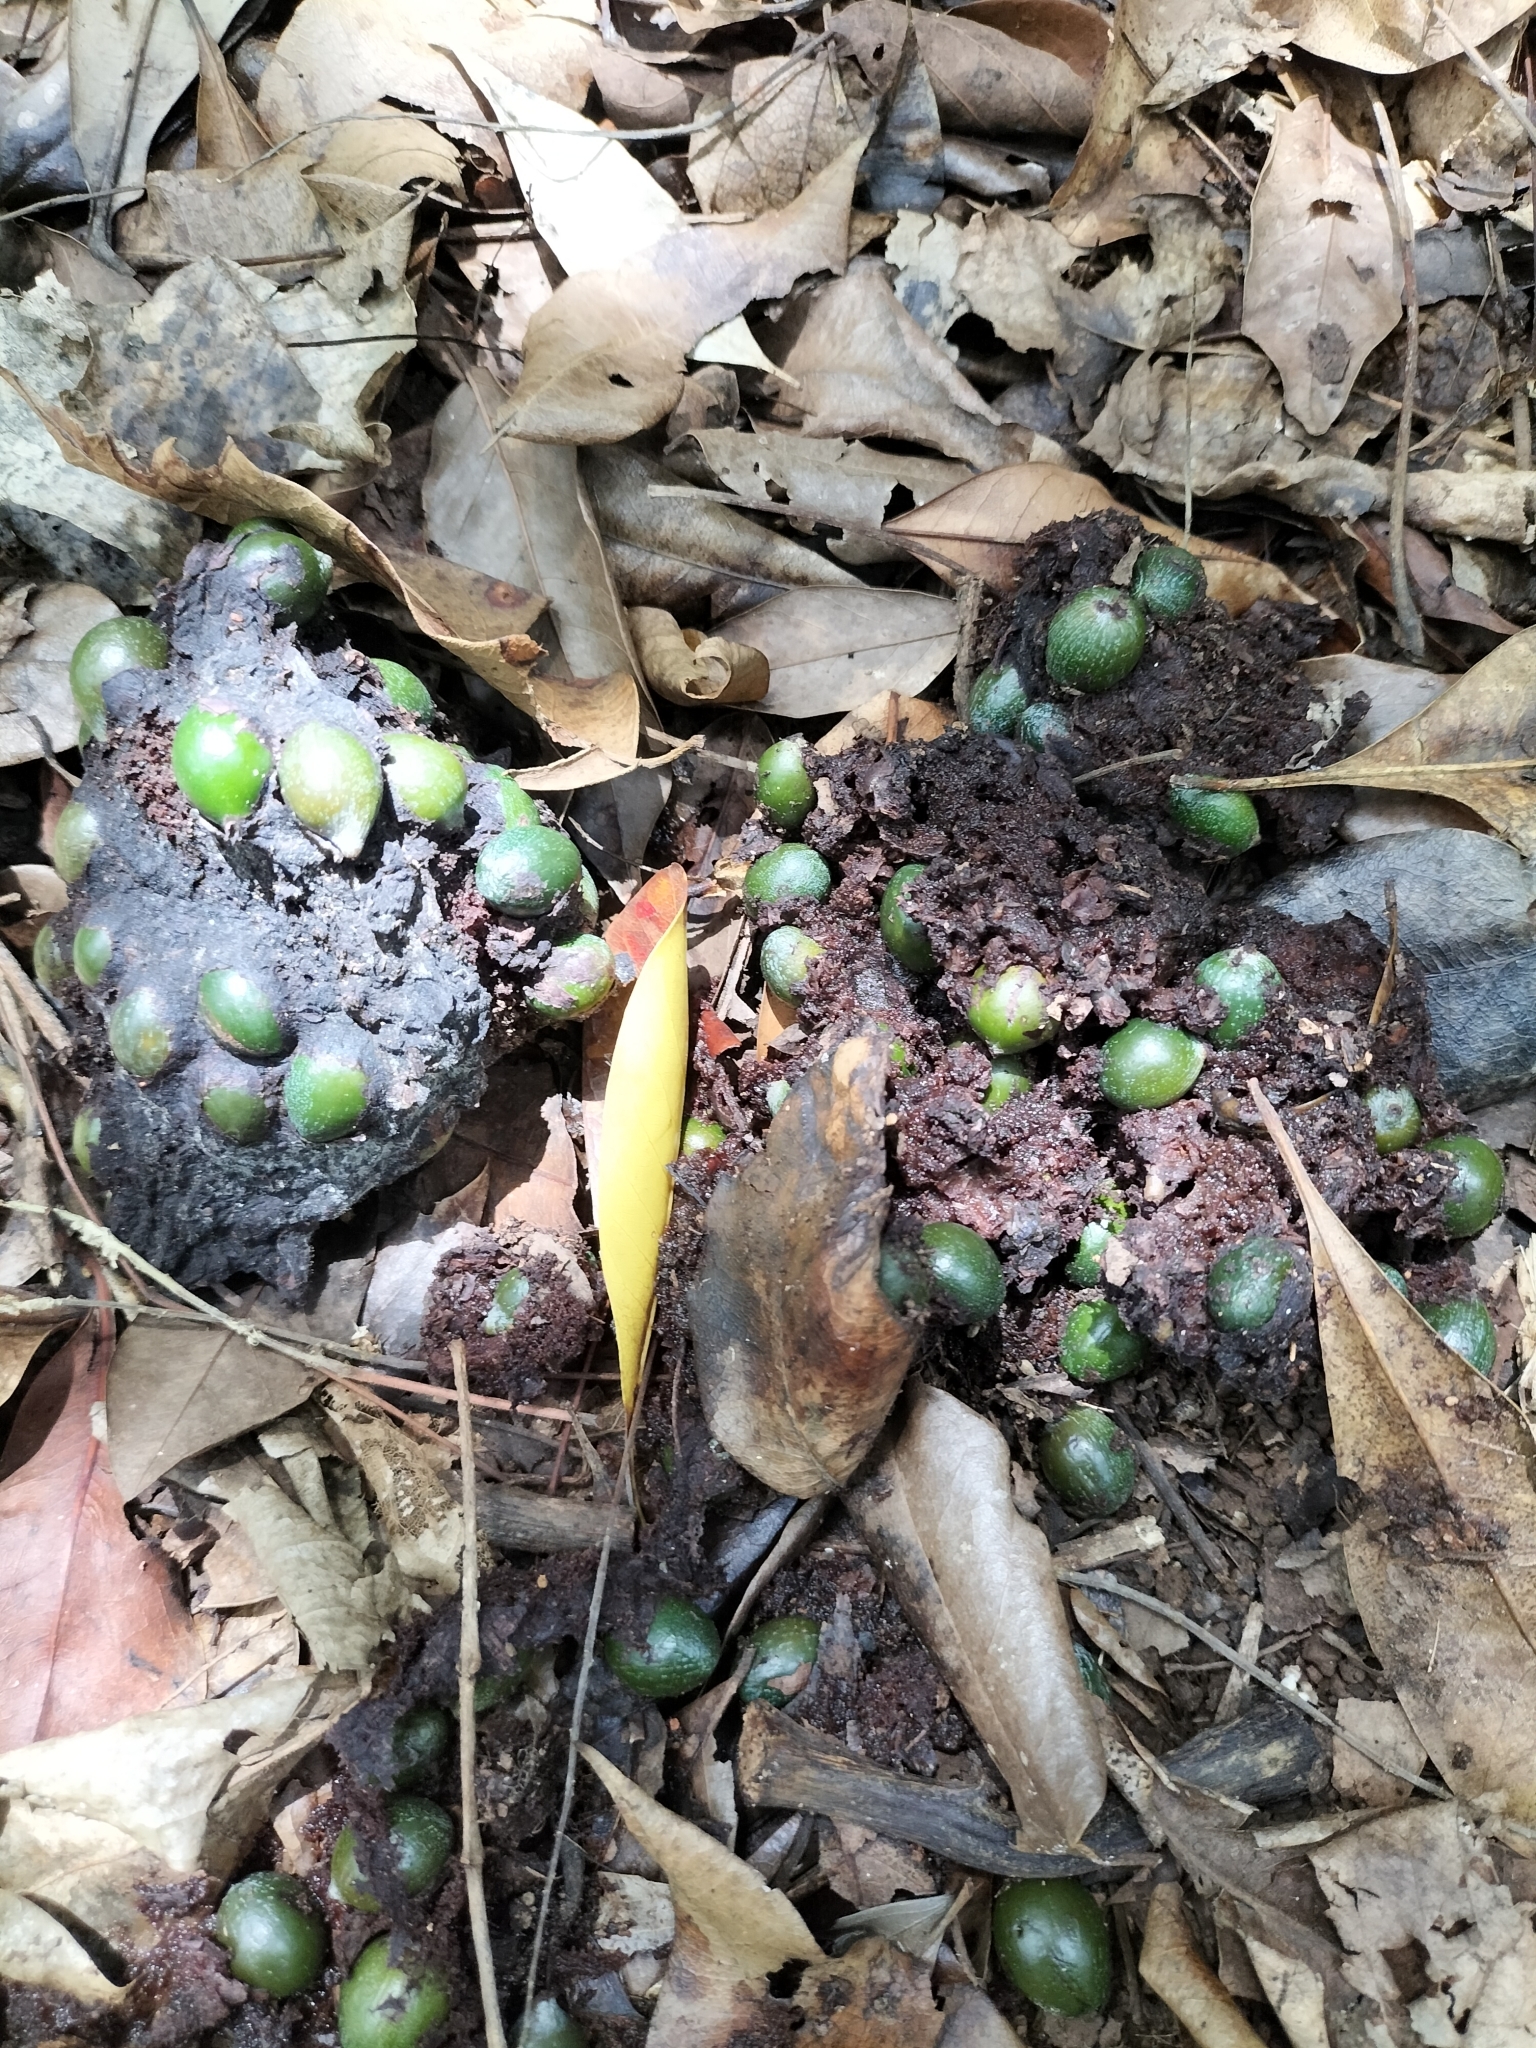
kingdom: Animalia
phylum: Chordata
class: Aves
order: Casuariiformes
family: Casuariidae
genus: Casuarius
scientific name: Casuarius casuarius
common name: Southern cassowary
